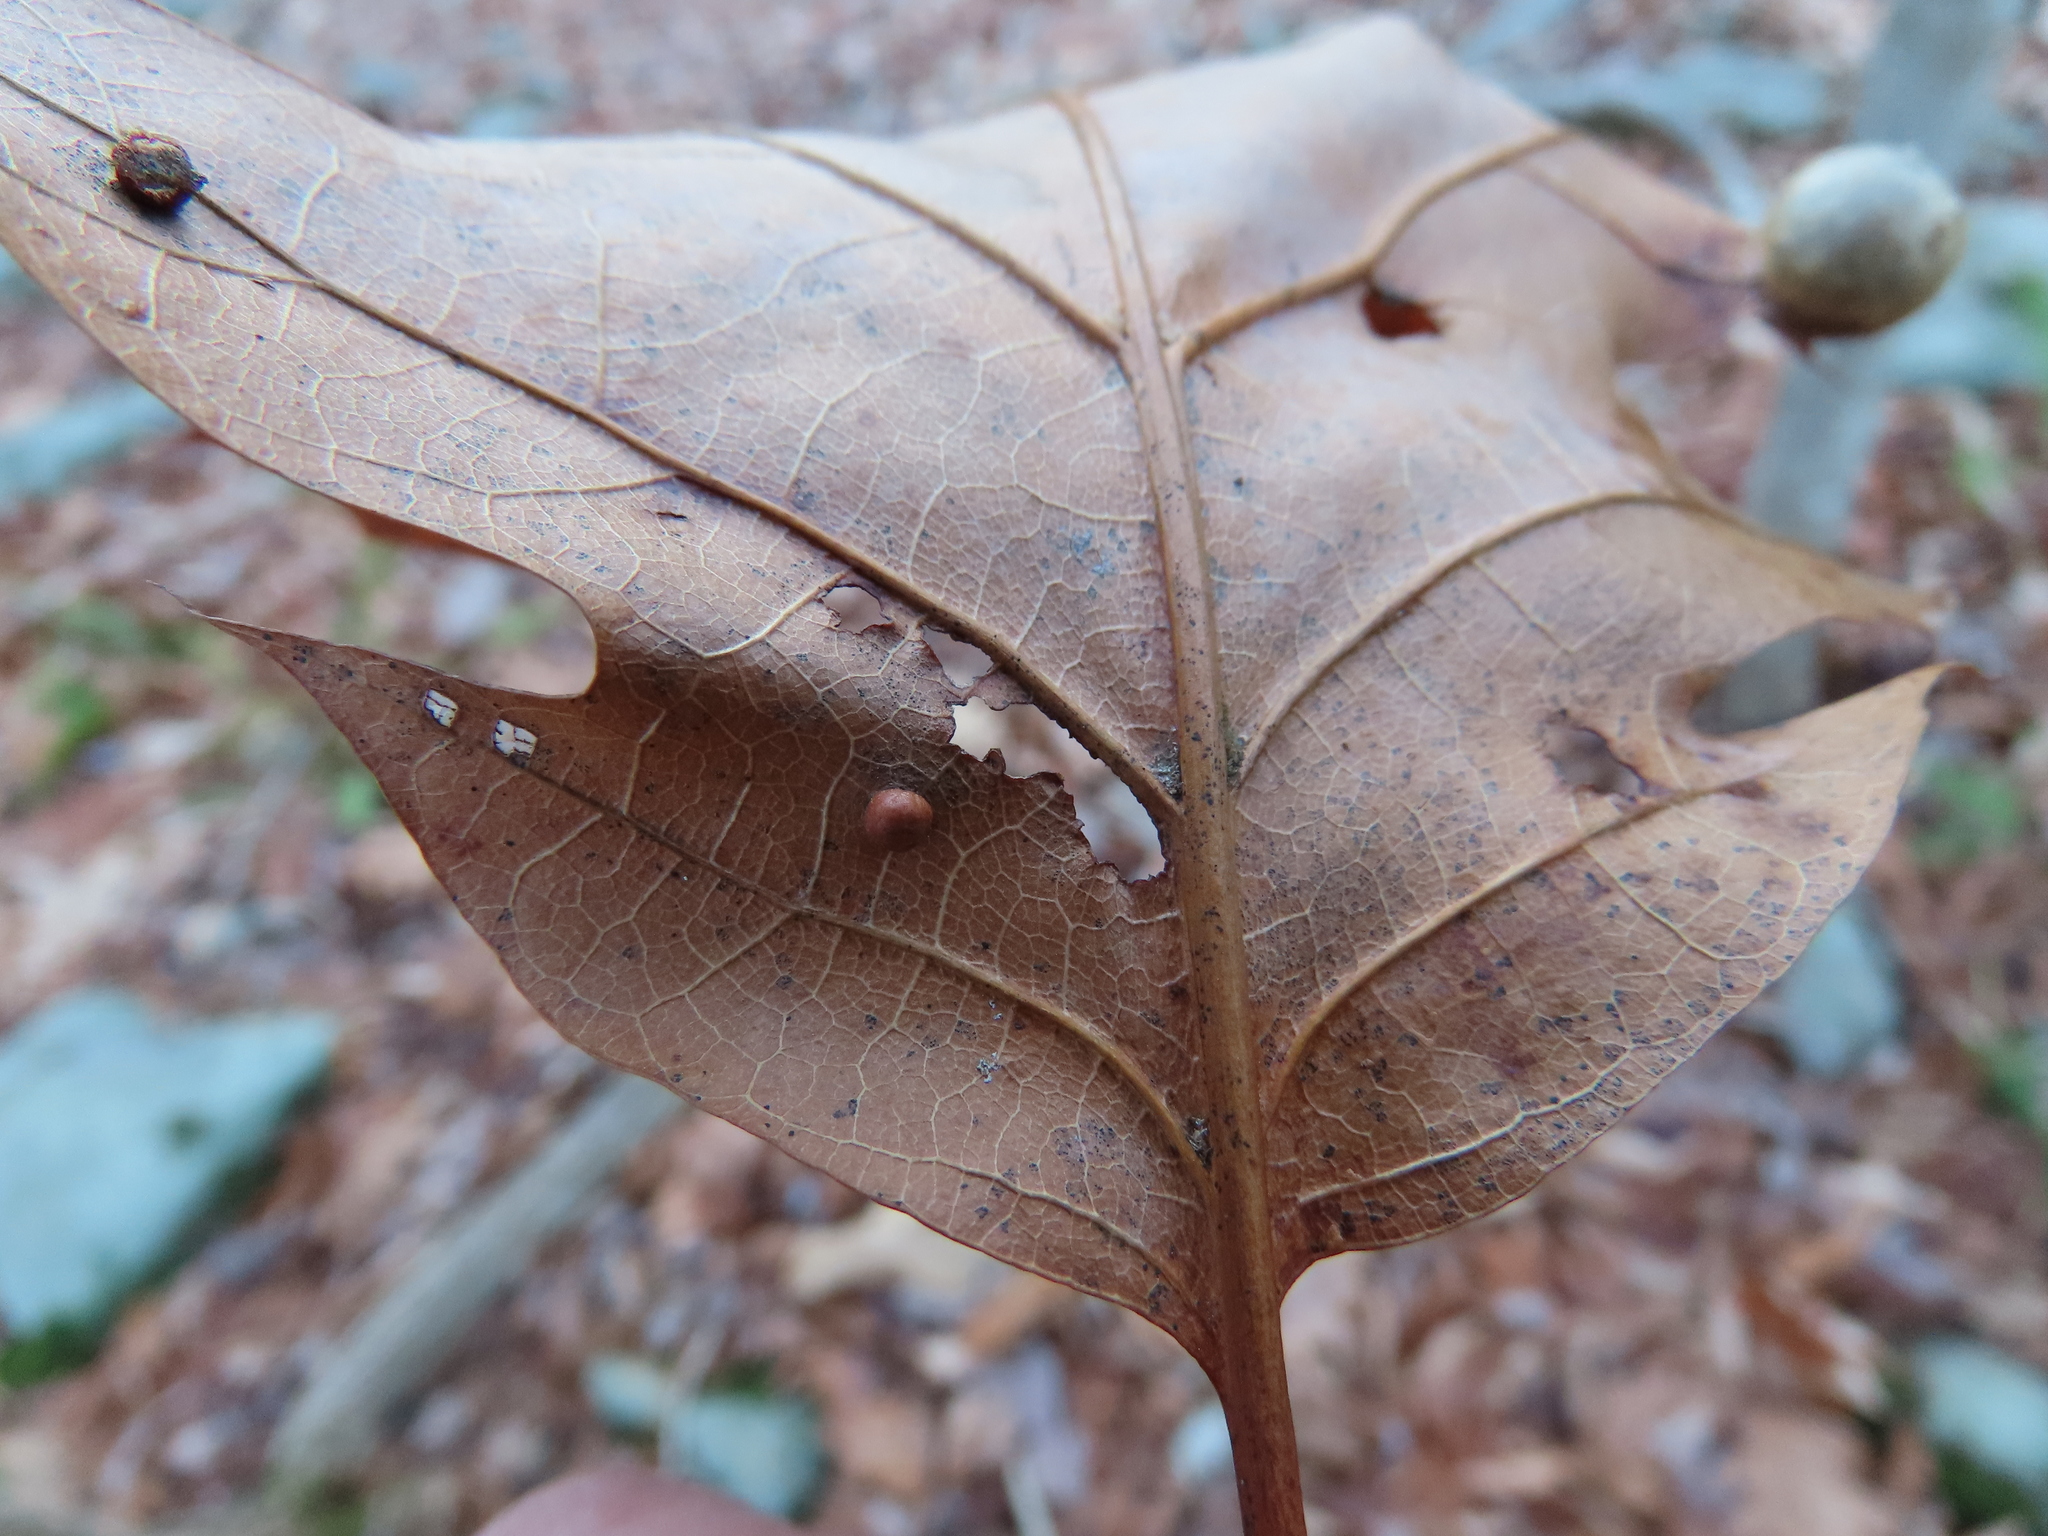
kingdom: Animalia
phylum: Arthropoda
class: Insecta
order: Diptera
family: Cecidomyiidae
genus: Polystepha
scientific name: Polystepha globosa
